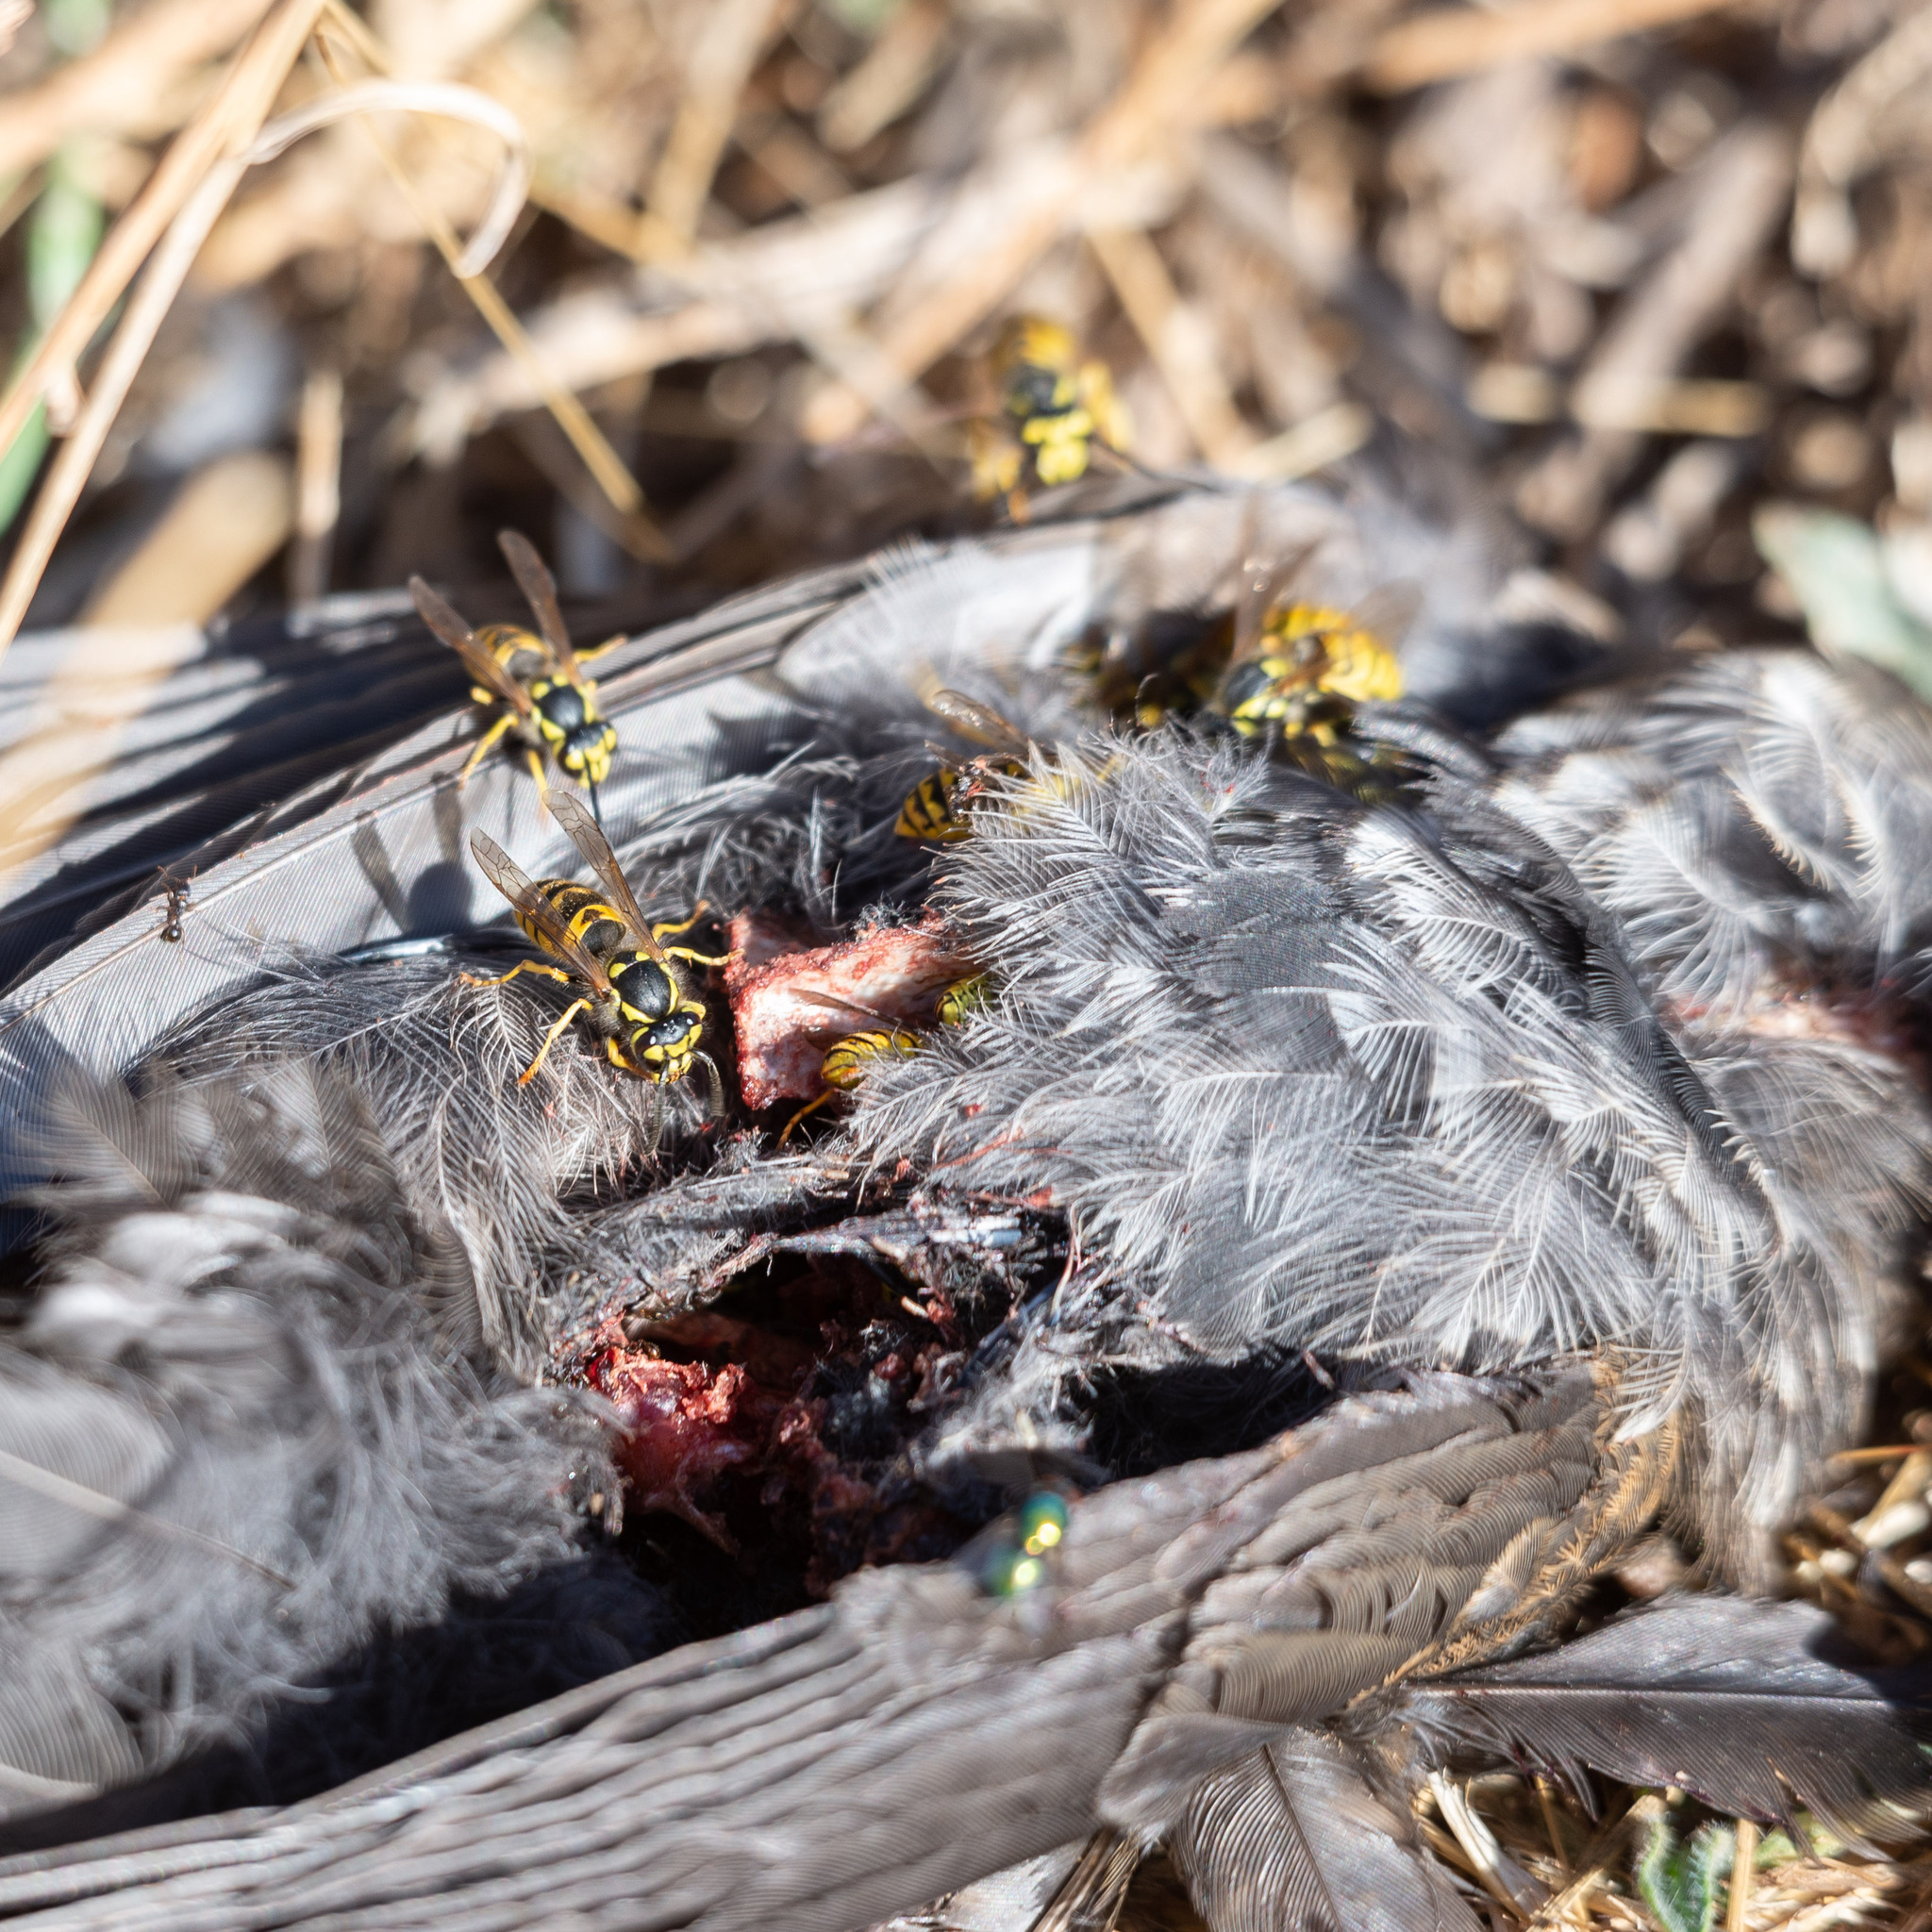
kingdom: Animalia
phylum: Arthropoda
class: Insecta
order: Hymenoptera
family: Vespidae
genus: Vespula
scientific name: Vespula germanica
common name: German wasp
